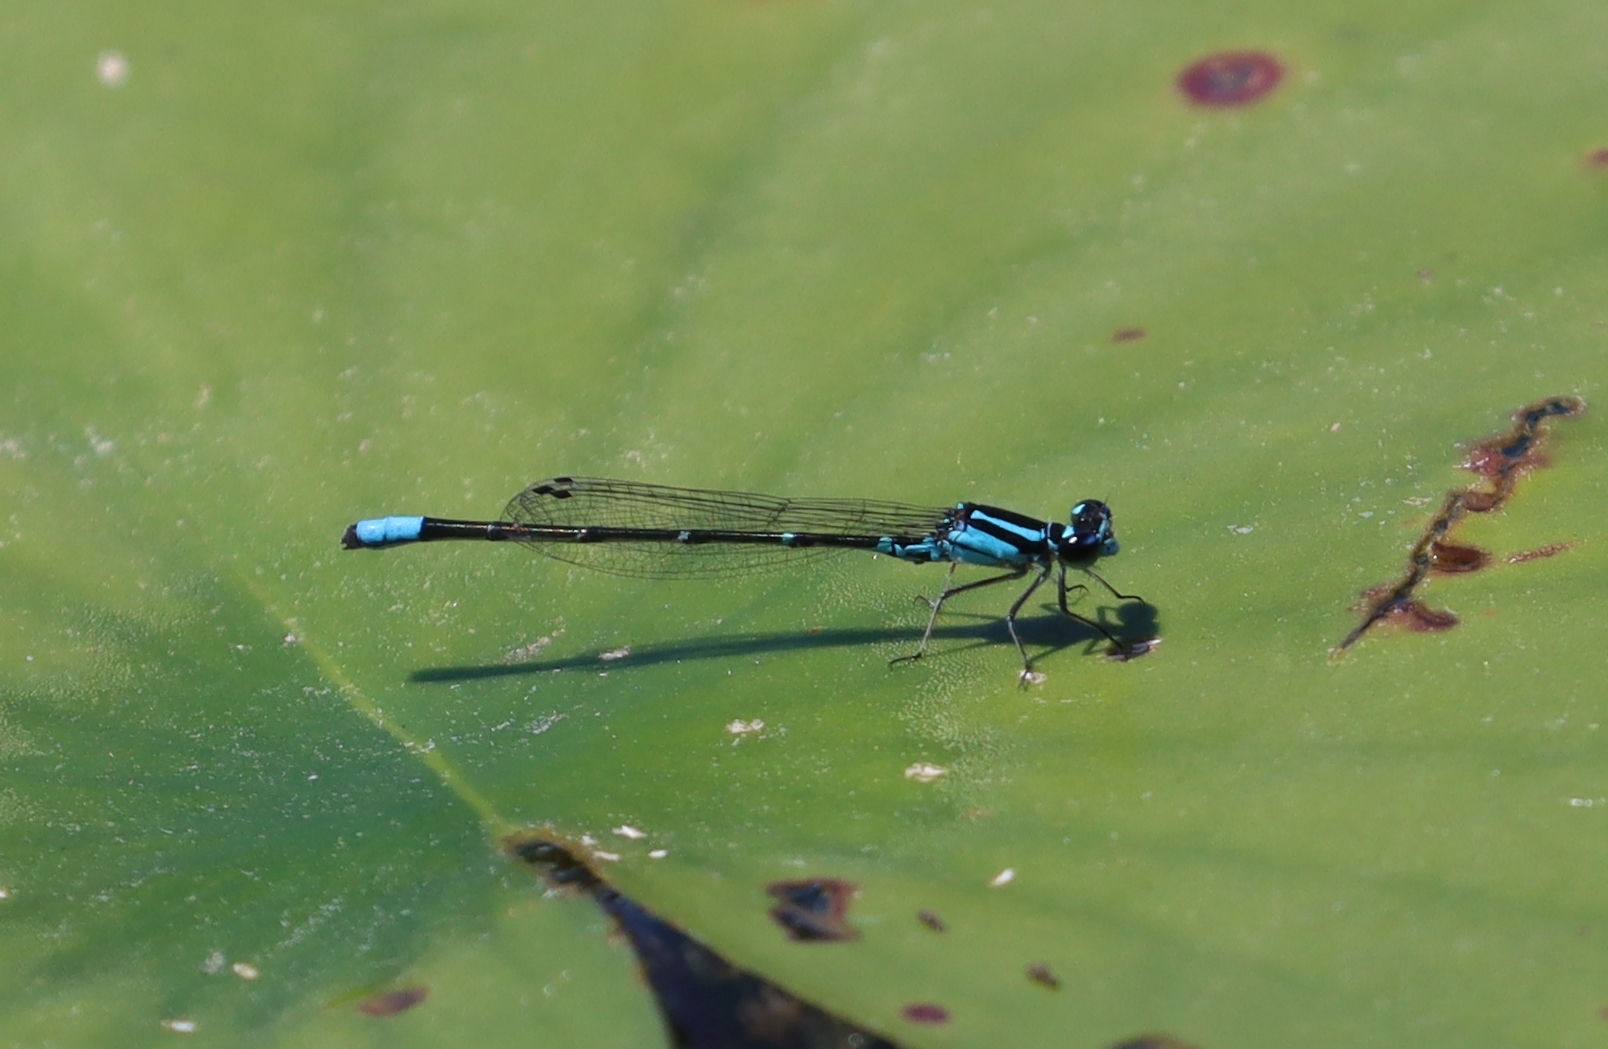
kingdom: Animalia
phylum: Arthropoda
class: Insecta
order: Odonata
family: Coenagrionidae
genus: Enallagma
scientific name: Enallagma geminatum
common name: Skimming bluet
